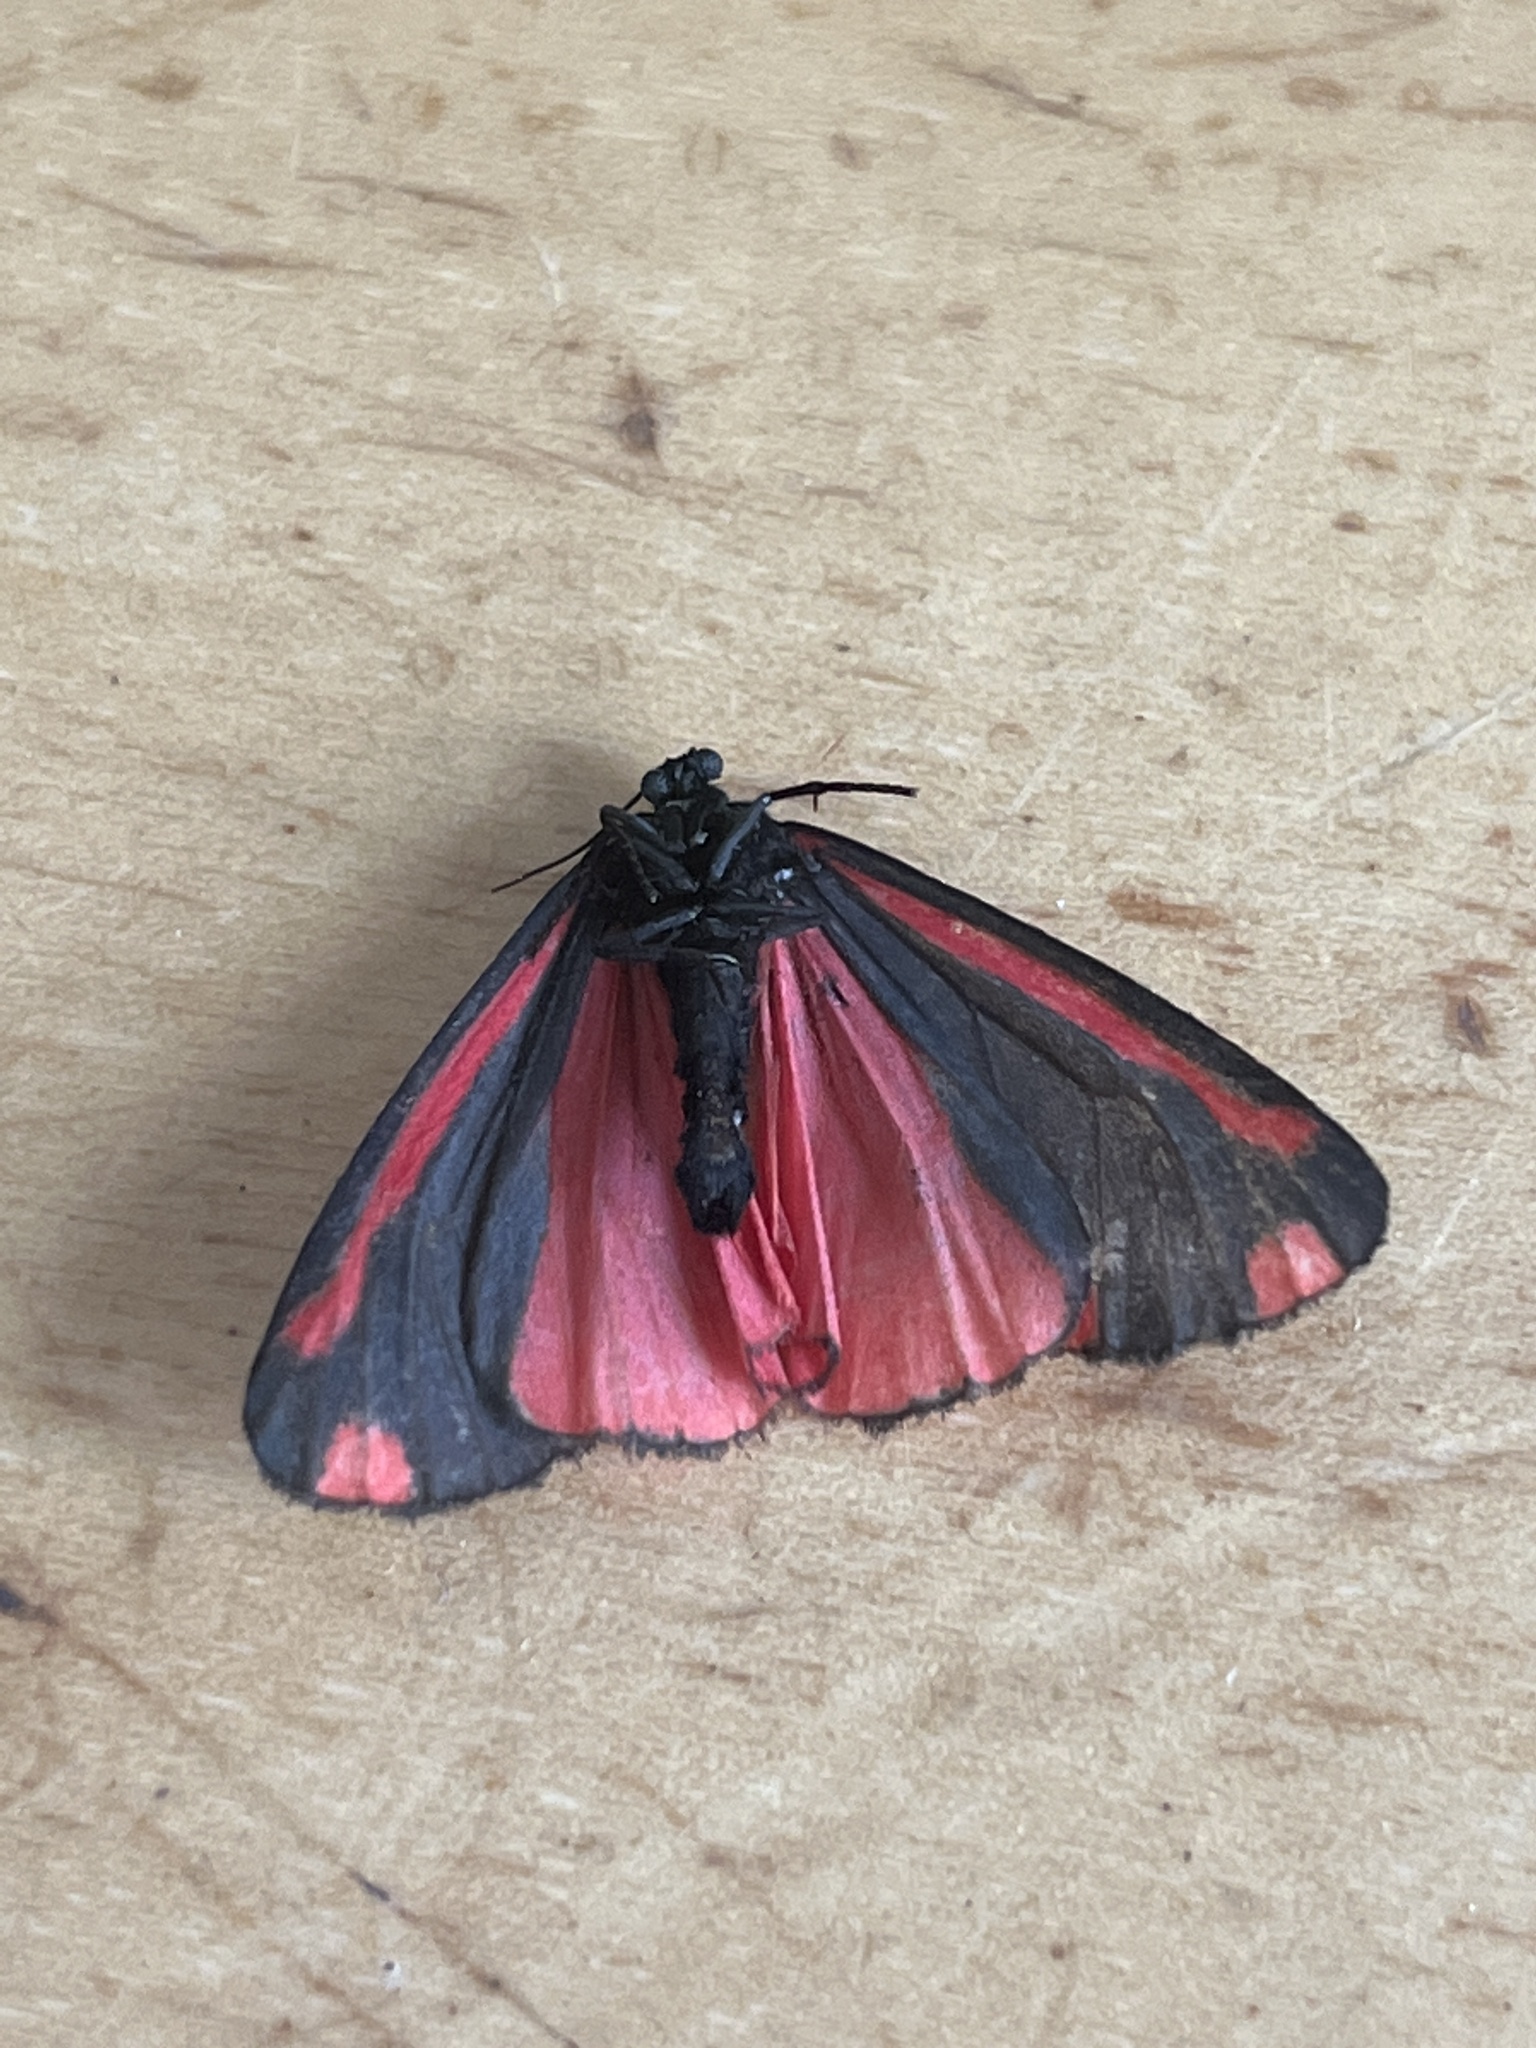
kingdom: Animalia
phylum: Arthropoda
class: Insecta
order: Lepidoptera
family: Erebidae
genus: Tyria
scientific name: Tyria jacobaeae
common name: Cinnabar
